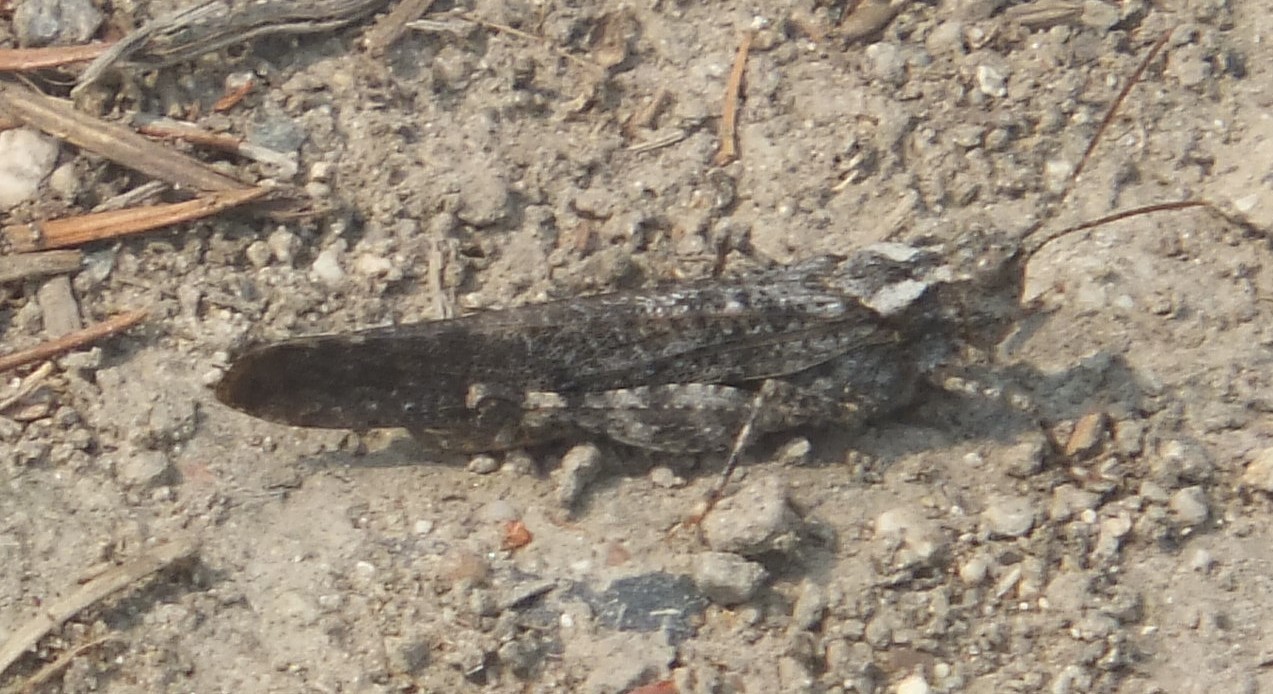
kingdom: Animalia
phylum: Arthropoda
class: Insecta
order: Orthoptera
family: Acrididae
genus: Trimerotropis
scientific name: Trimerotropis verruculata
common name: Crackling forest grasshopper
